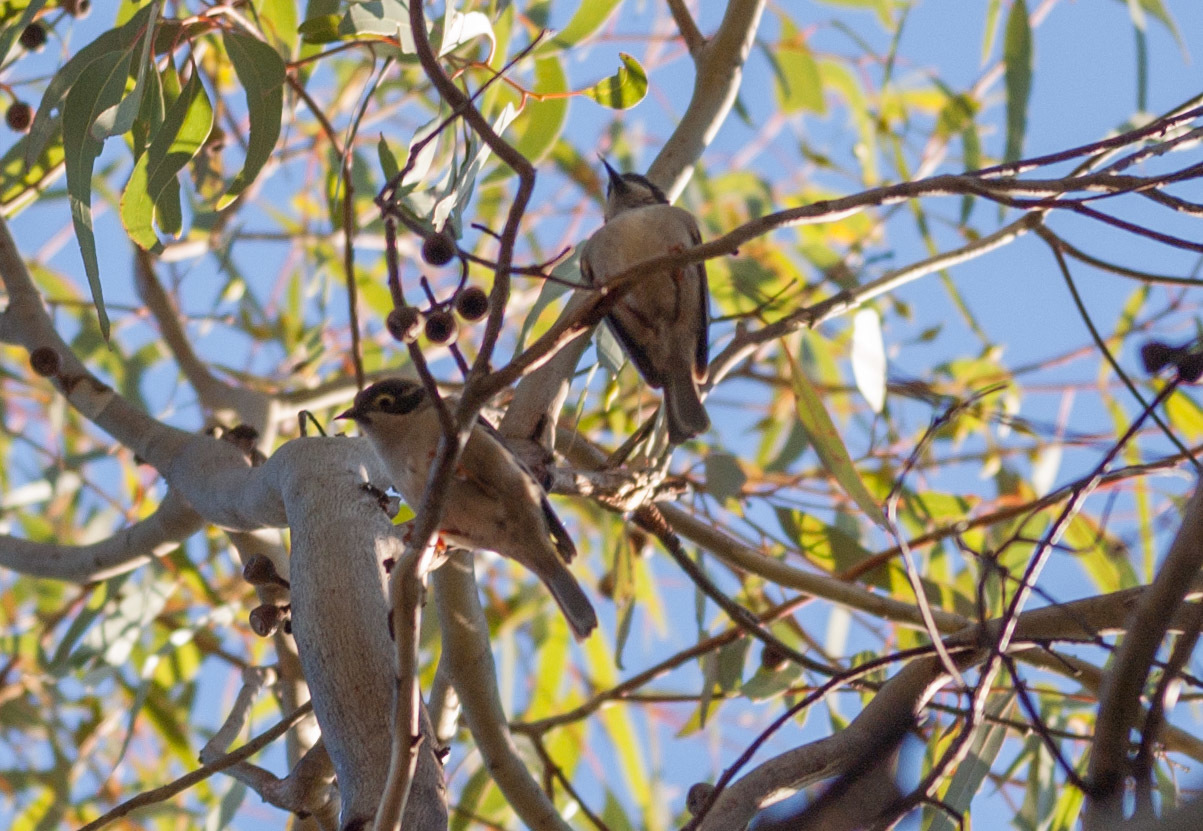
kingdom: Animalia
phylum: Chordata
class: Aves
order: Passeriformes
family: Meliphagidae
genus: Melithreptus
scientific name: Melithreptus brevirostris
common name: Brown-headed honeyeater
